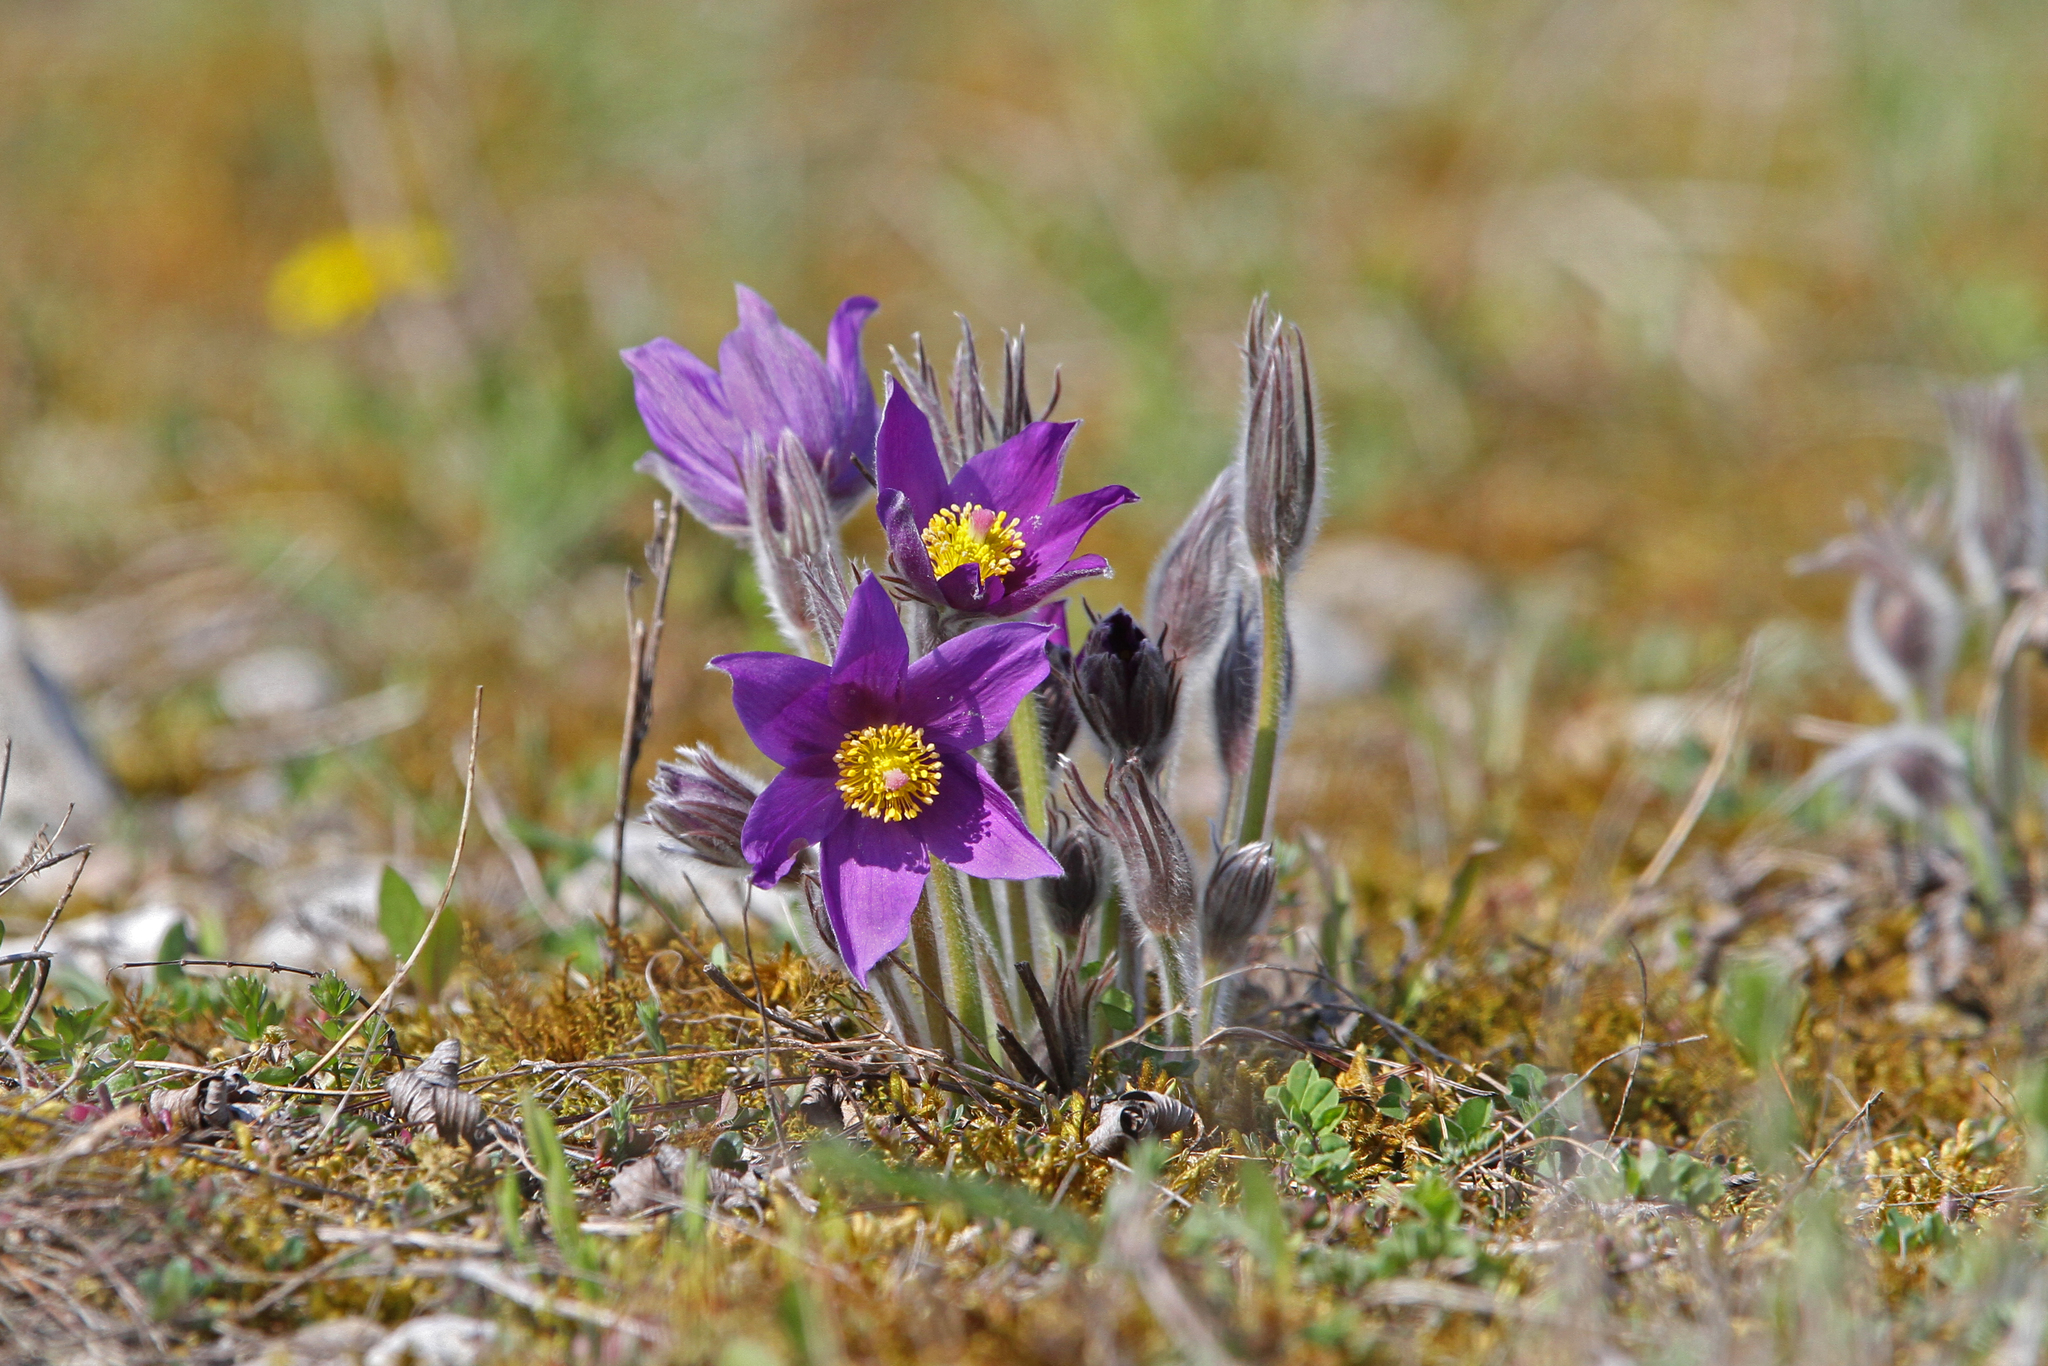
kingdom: Plantae
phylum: Tracheophyta
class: Magnoliopsida
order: Ranunculales
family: Ranunculaceae
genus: Pulsatilla
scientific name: Pulsatilla patens
